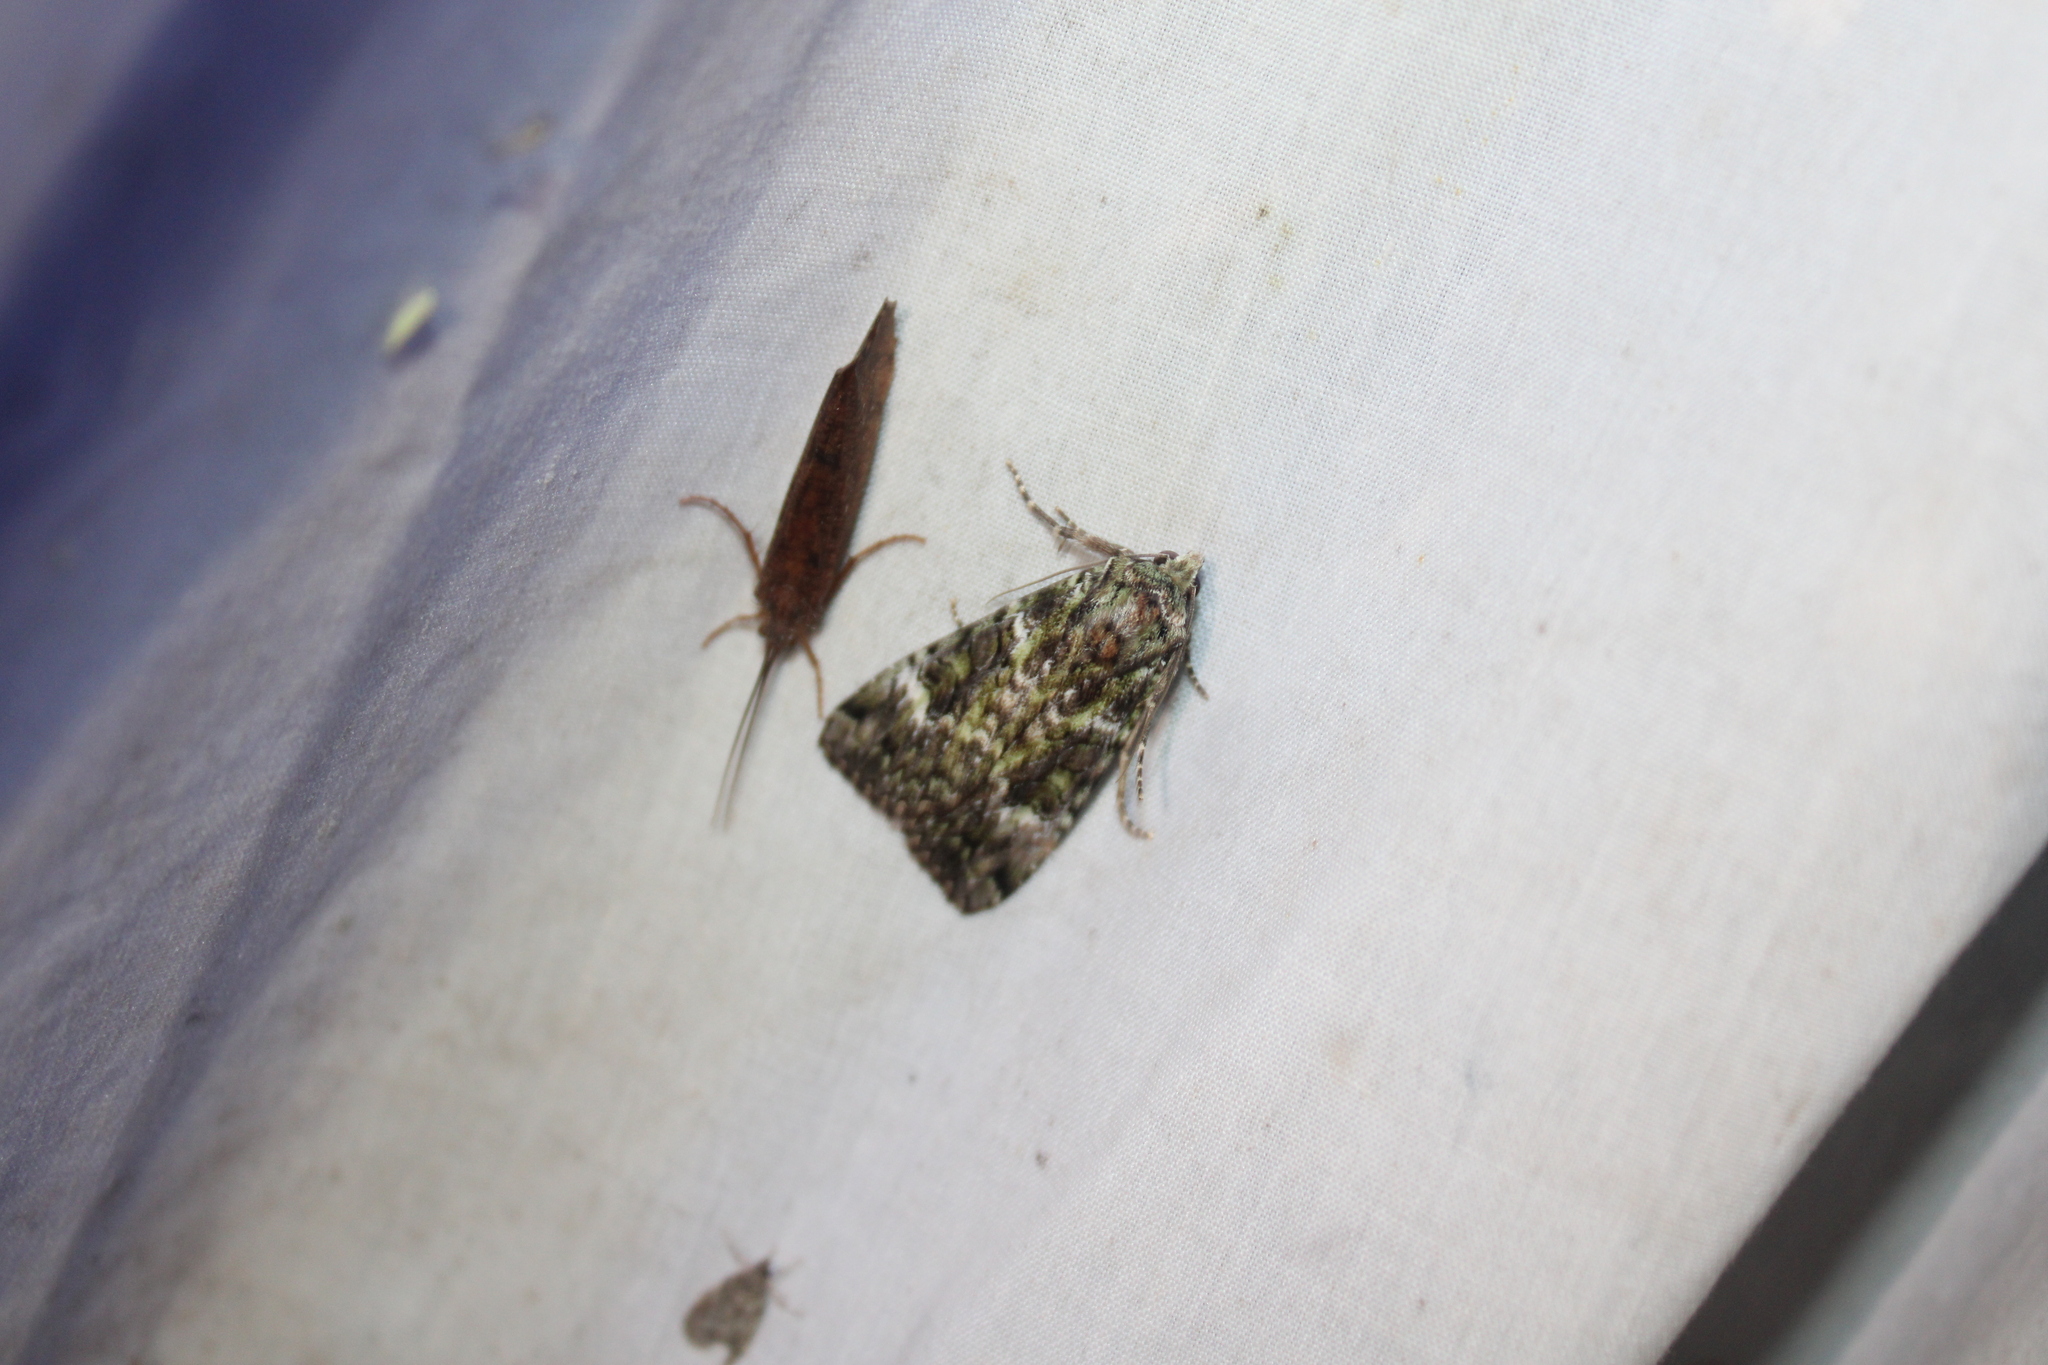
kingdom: Animalia
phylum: Arthropoda
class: Insecta
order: Lepidoptera
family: Noctuidae
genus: Anaplectoides
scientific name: Anaplectoides prasina
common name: Green arches
